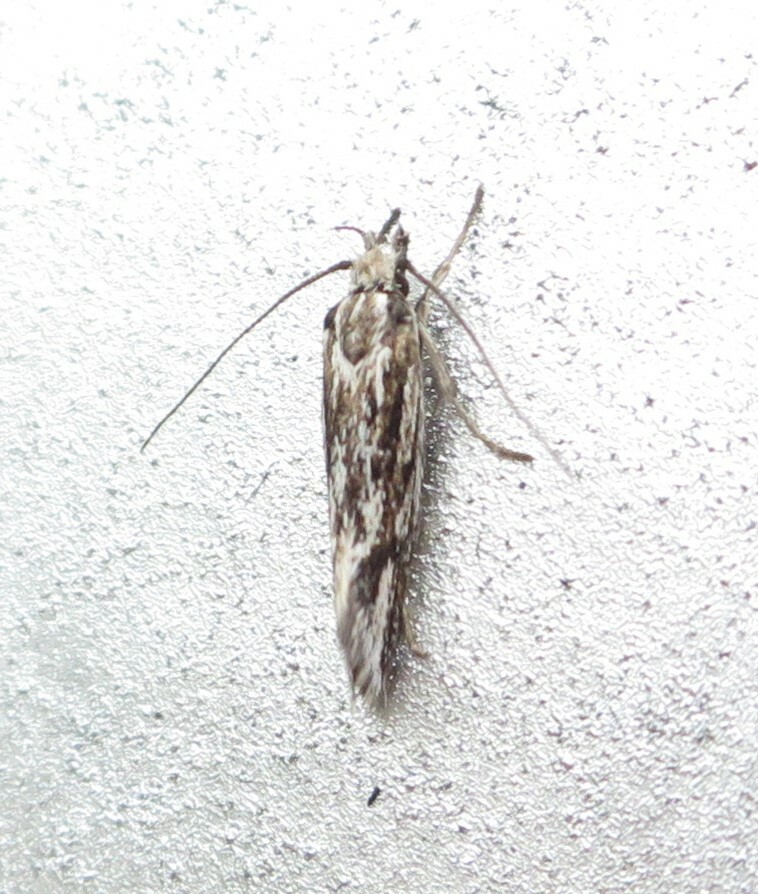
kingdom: Animalia
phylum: Arthropoda
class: Insecta
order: Lepidoptera
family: Oecophoridae
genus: Prepalla
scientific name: Prepalla
